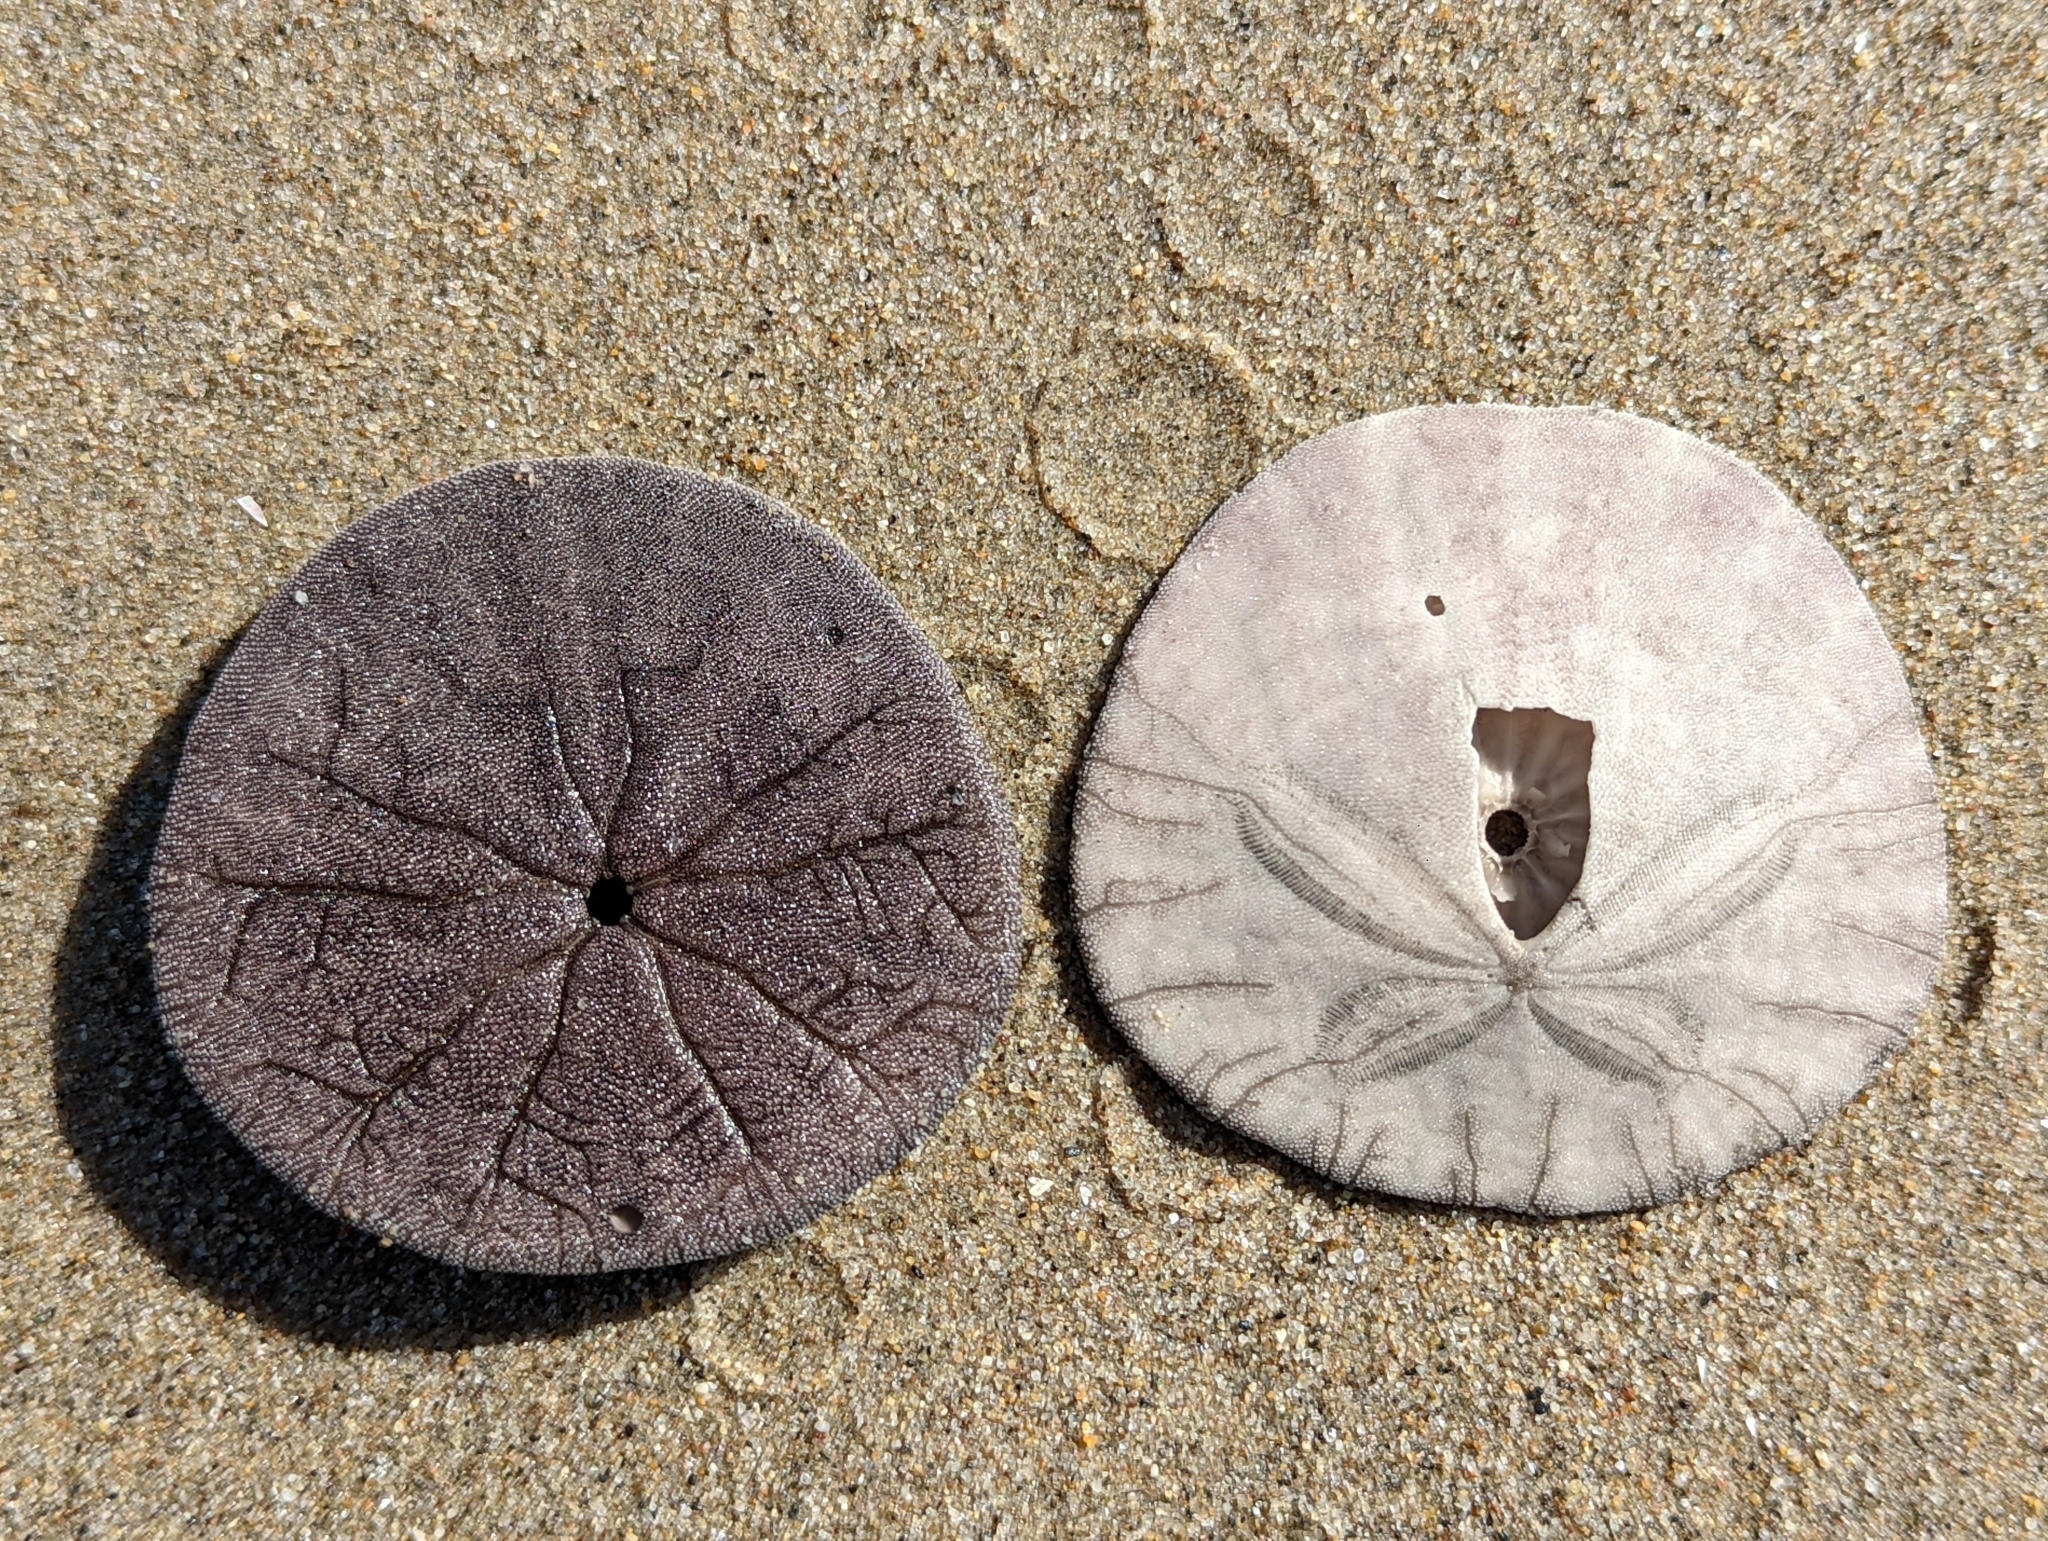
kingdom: Animalia
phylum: Echinodermata
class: Echinoidea
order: Echinolampadacea
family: Dendrasteridae
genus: Dendraster
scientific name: Dendraster excentricus
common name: Eccentric sand dollar sea urchin
